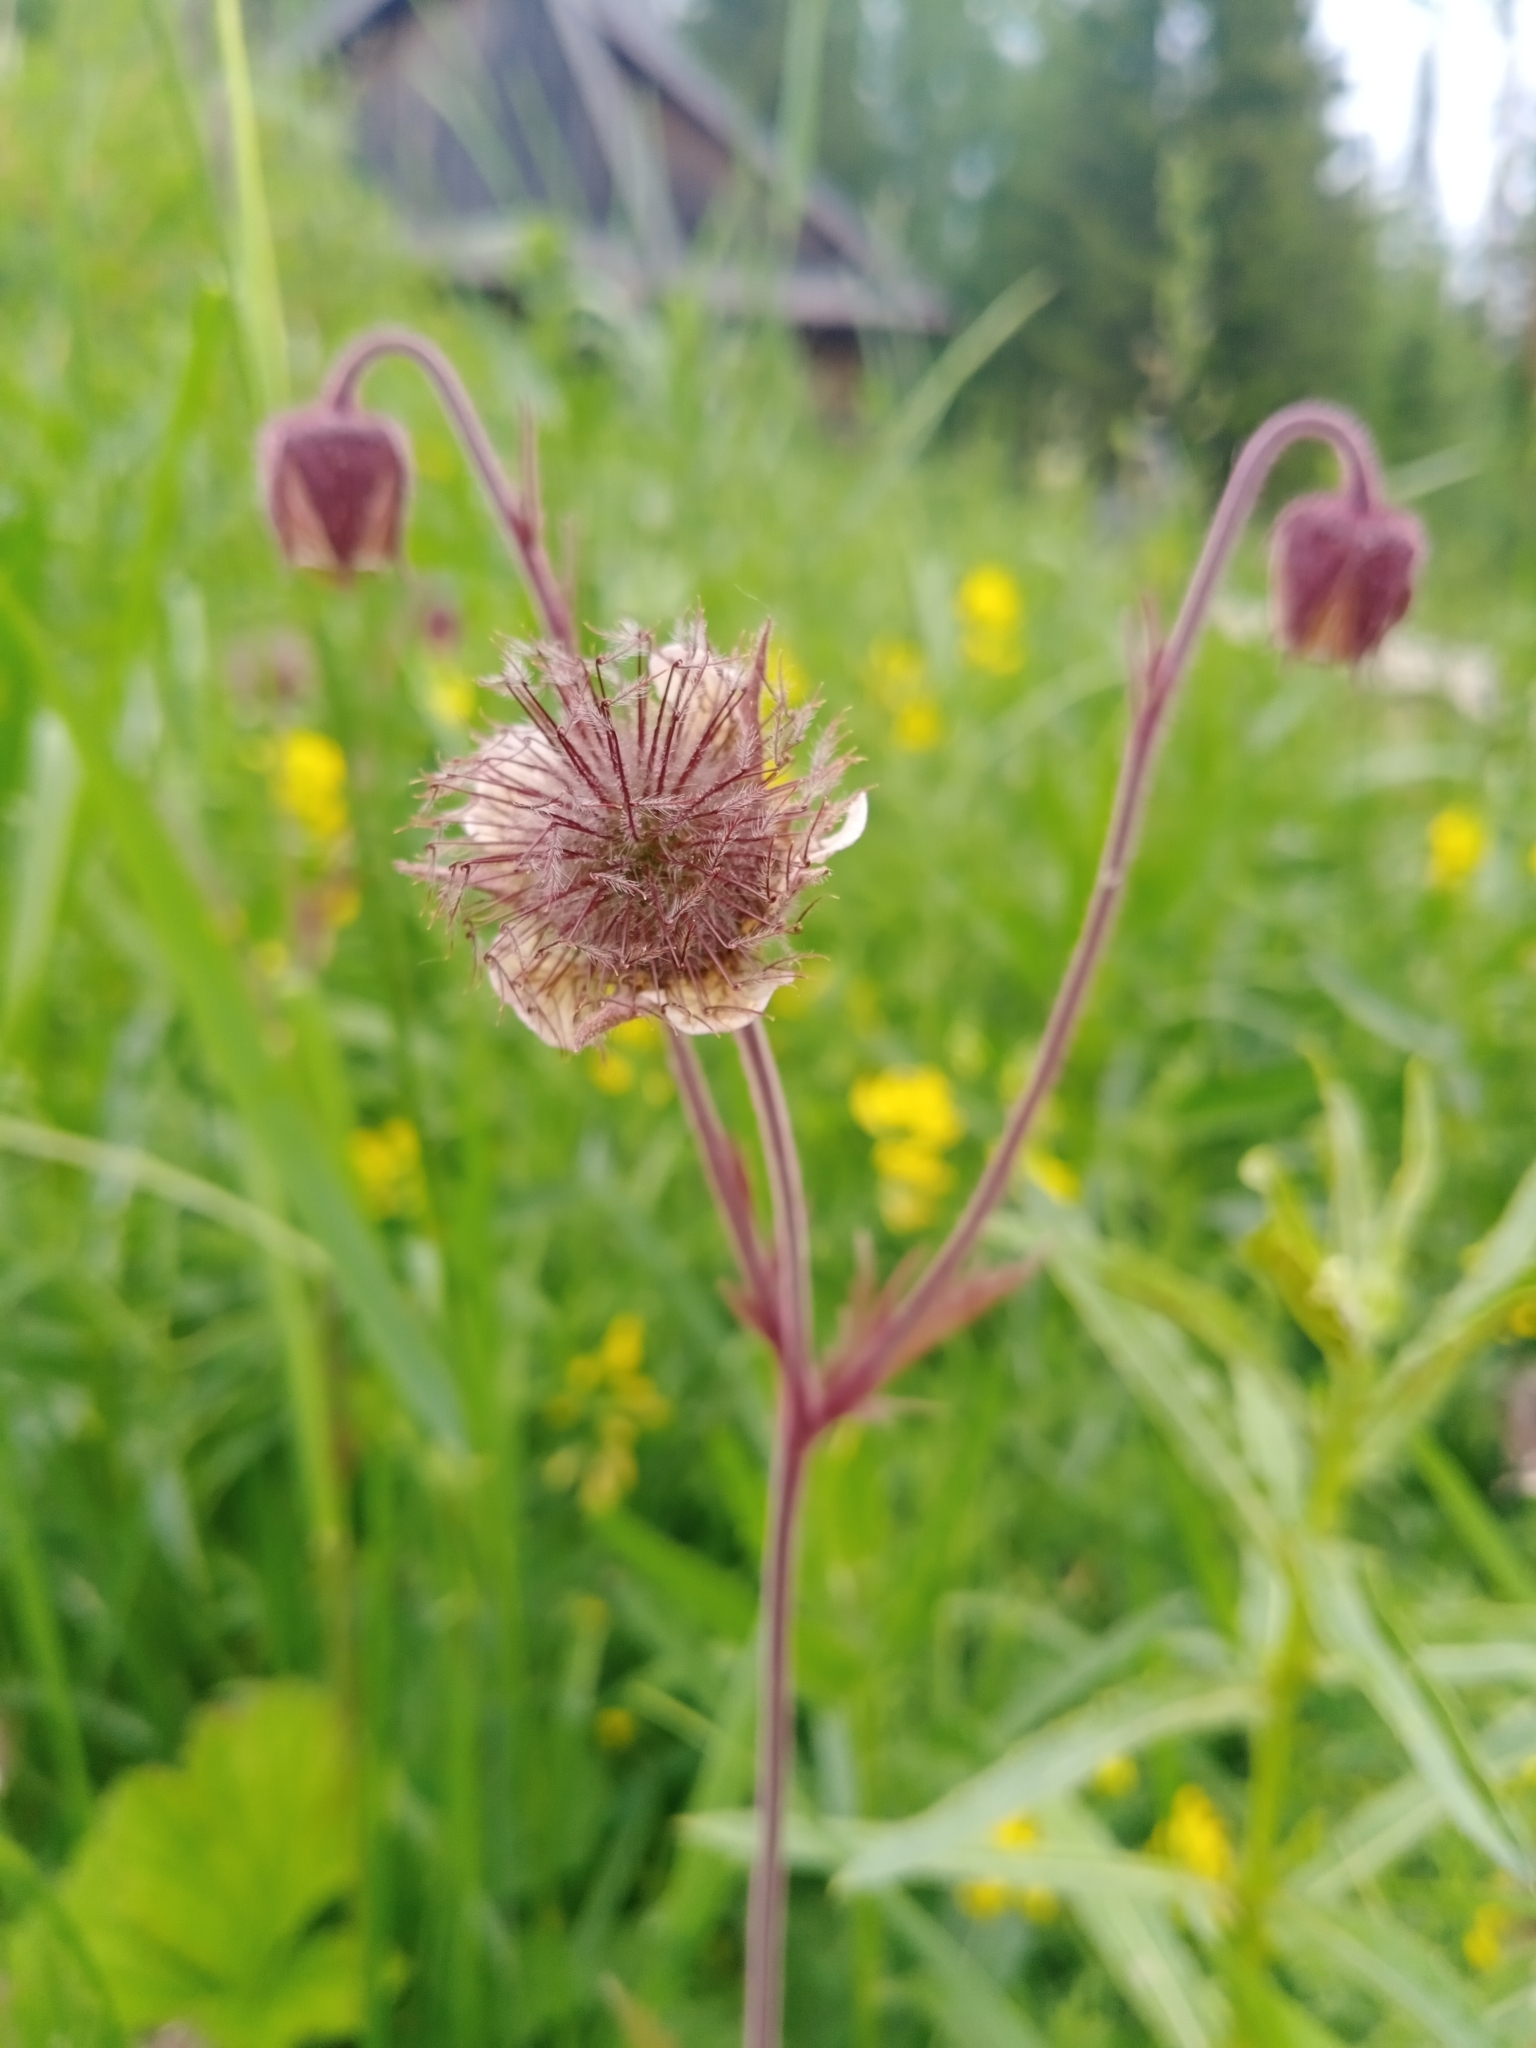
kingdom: Plantae
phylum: Tracheophyta
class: Magnoliopsida
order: Rosales
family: Rosaceae
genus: Geum
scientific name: Geum rivale
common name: Water avens
